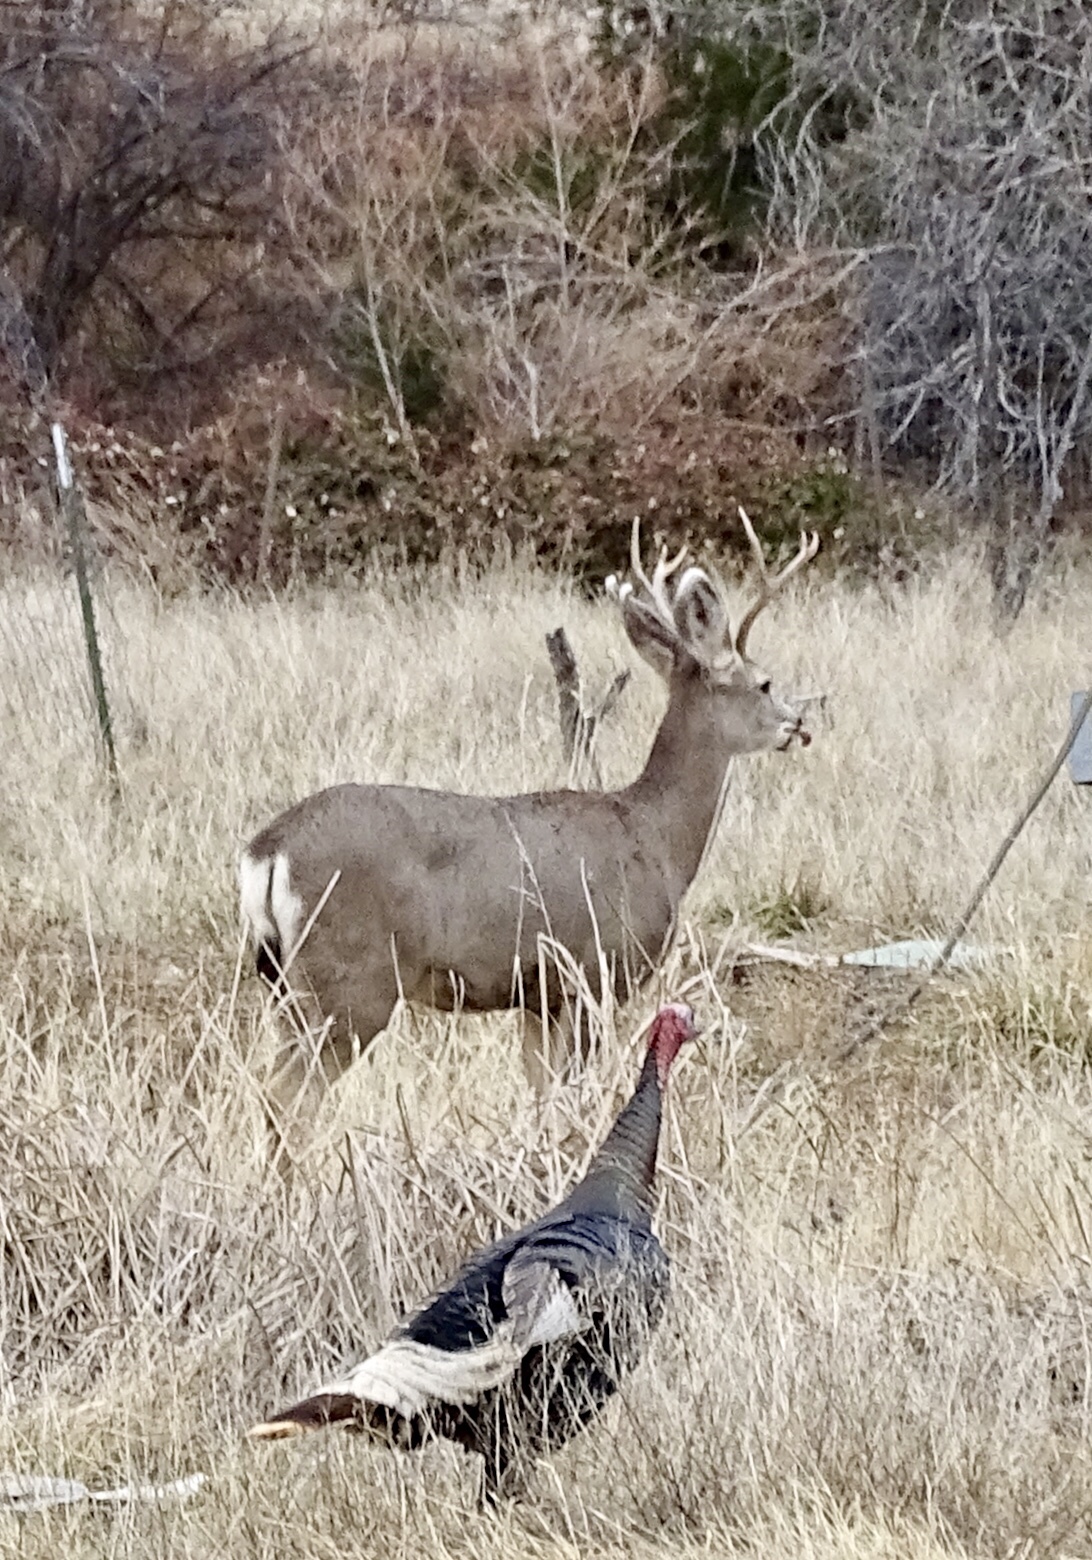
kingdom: Animalia
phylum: Chordata
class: Mammalia
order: Artiodactyla
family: Cervidae
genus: Odocoileus
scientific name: Odocoileus hemionus
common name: Mule deer
